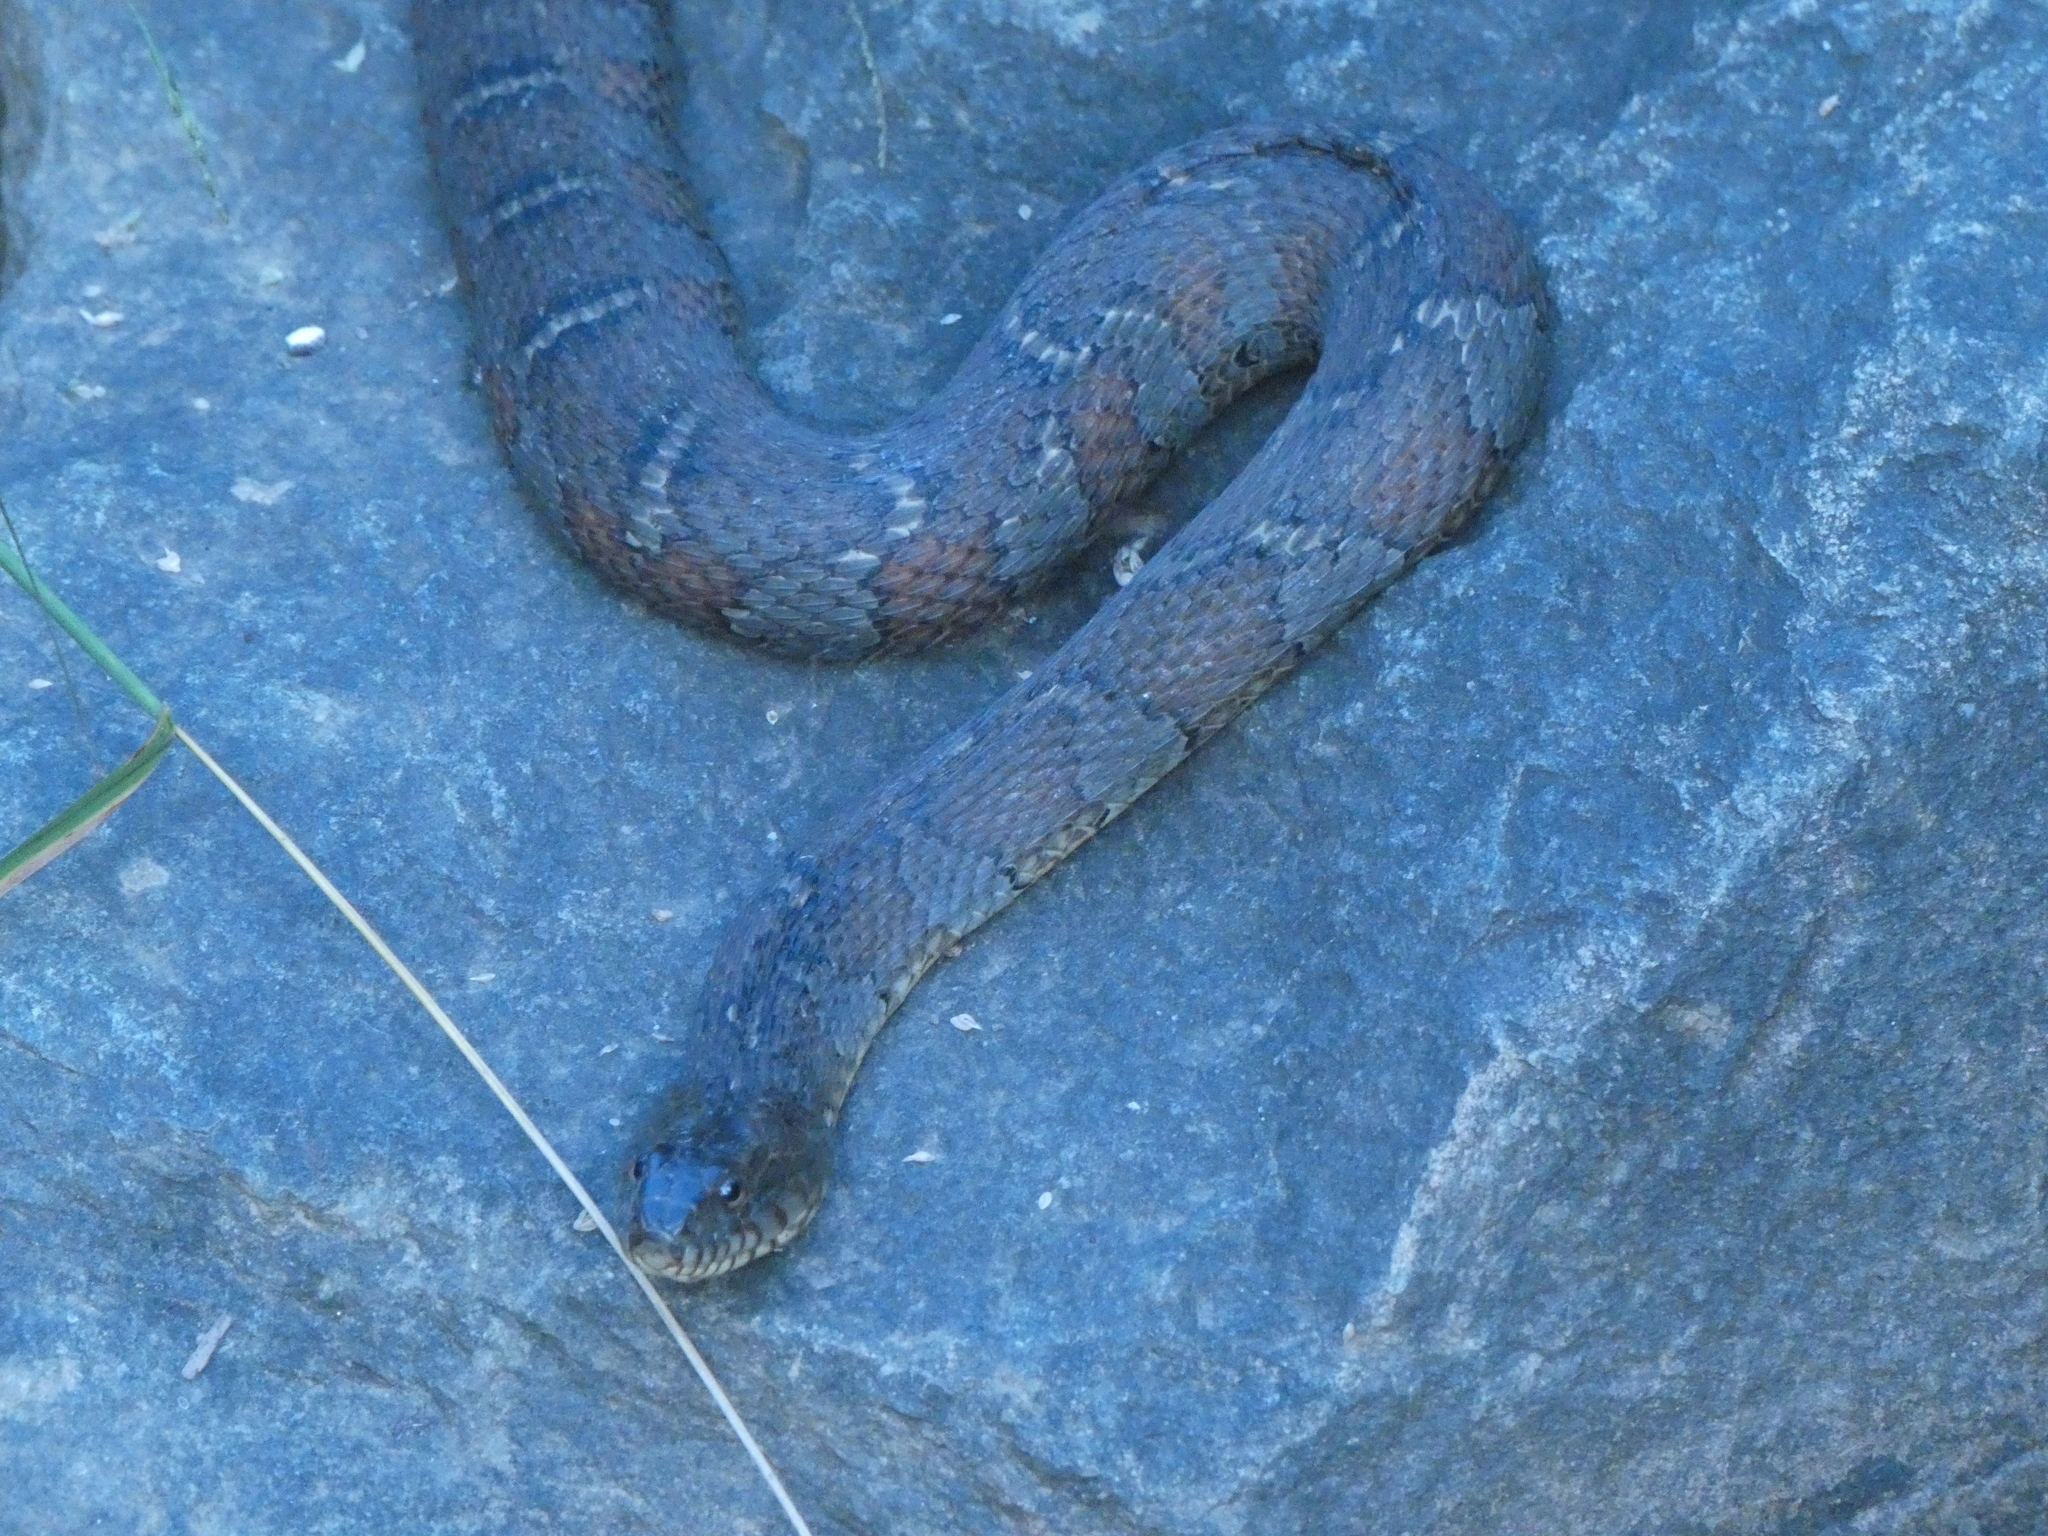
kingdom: Animalia
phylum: Chordata
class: Squamata
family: Colubridae
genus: Nerodia
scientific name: Nerodia sipedon
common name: Northern water snake
